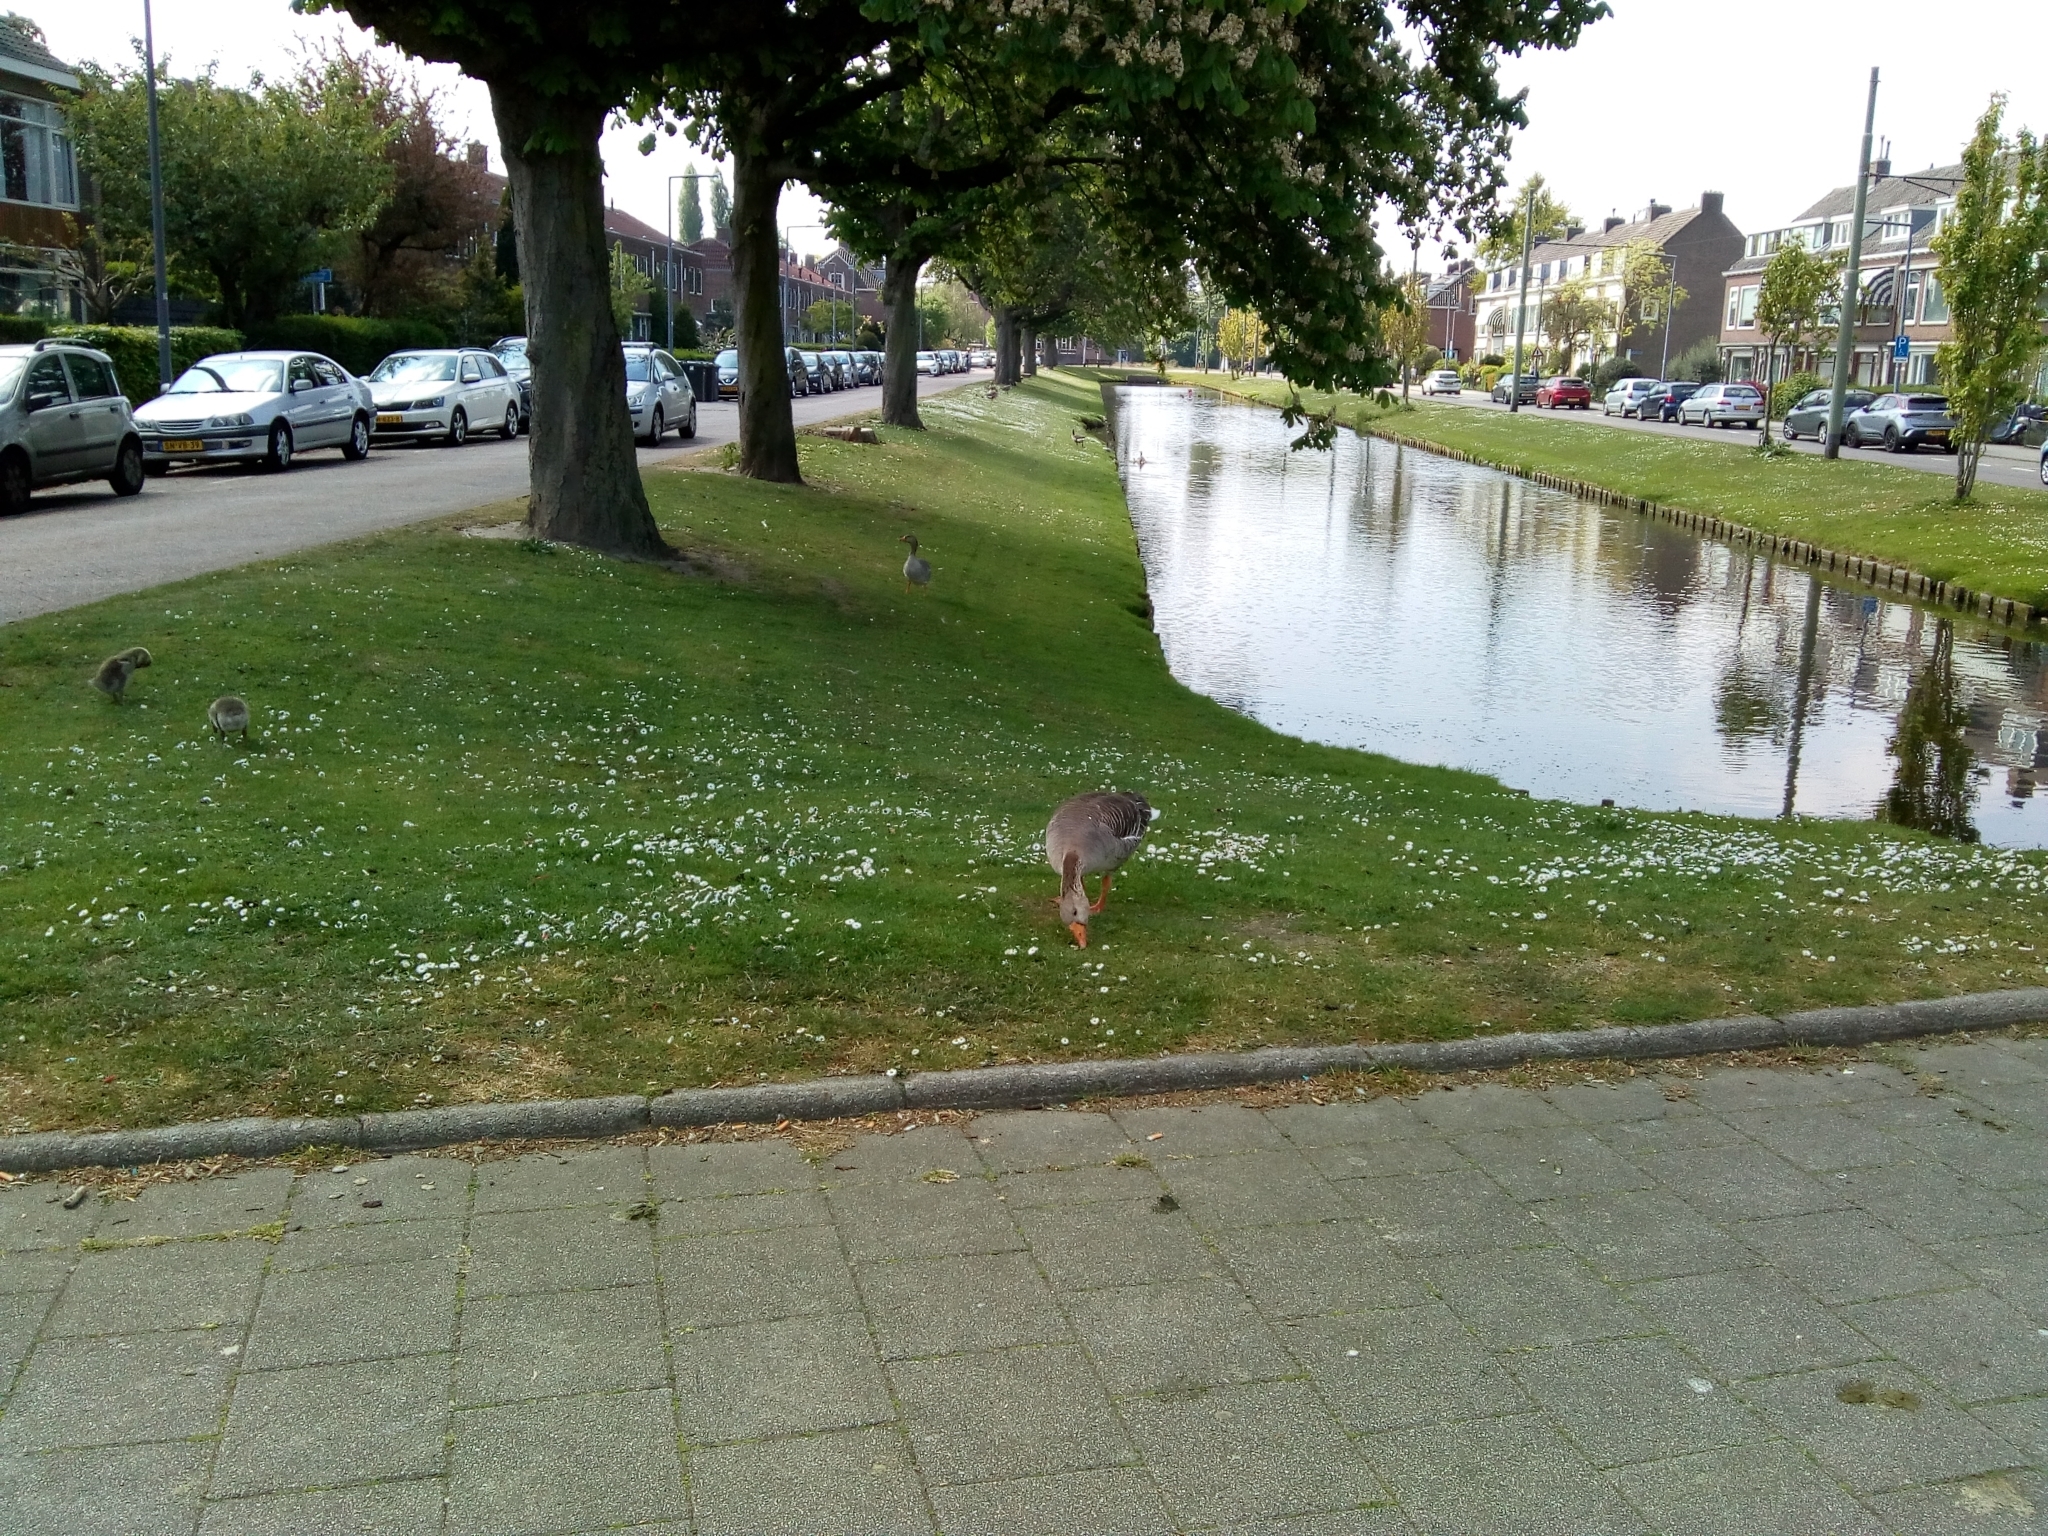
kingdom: Animalia
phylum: Chordata
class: Aves
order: Anseriformes
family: Anatidae
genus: Anser
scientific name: Anser anser
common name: Greylag goose
